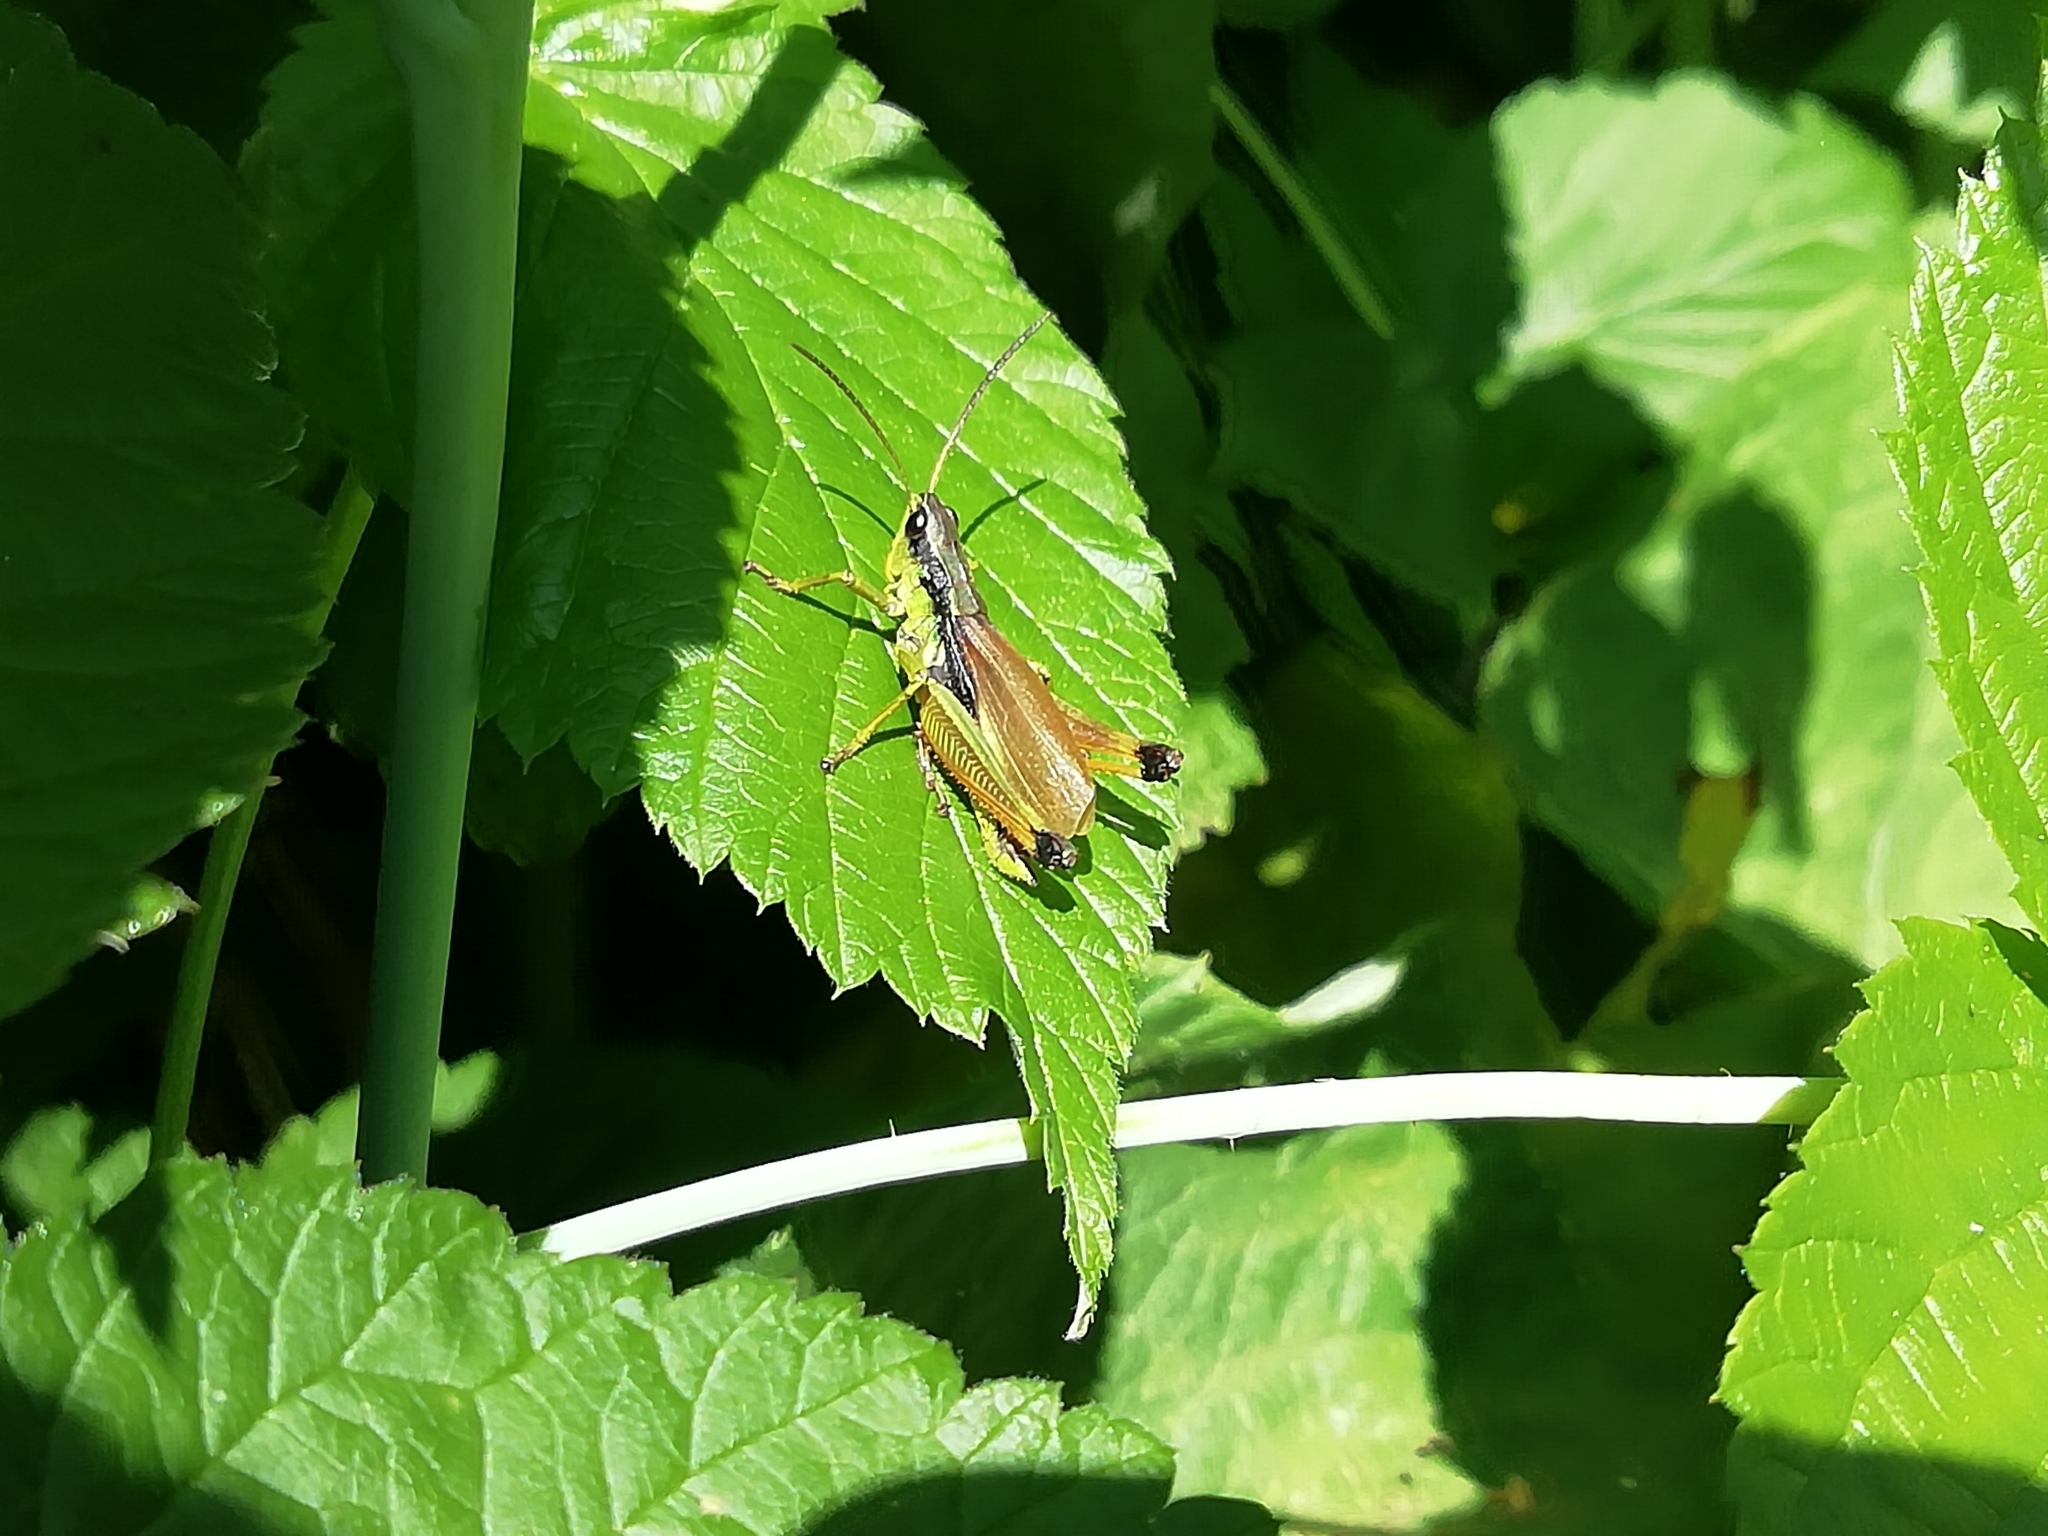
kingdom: Animalia
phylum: Arthropoda
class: Insecta
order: Orthoptera
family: Acrididae
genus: Podismopsis
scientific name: Podismopsis poppiusi
